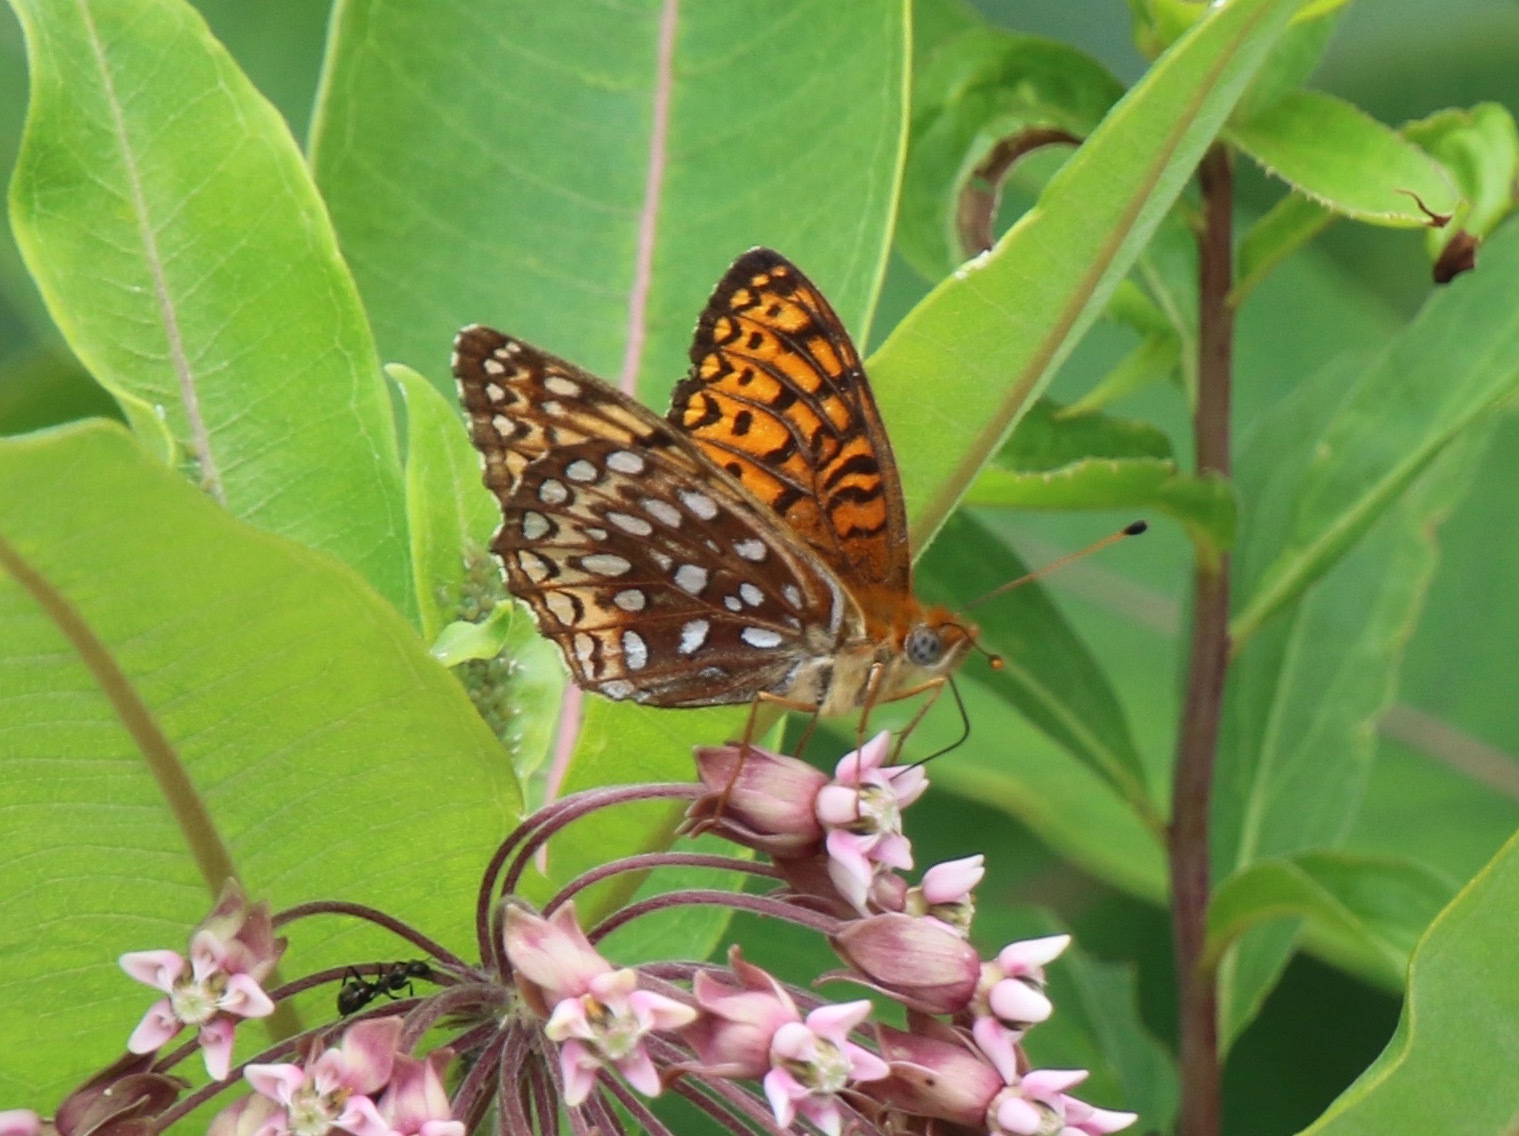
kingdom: Animalia
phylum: Arthropoda
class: Insecta
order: Lepidoptera
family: Nymphalidae
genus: Speyeria
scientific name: Speyeria atlantis
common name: Atlantis fritillary
